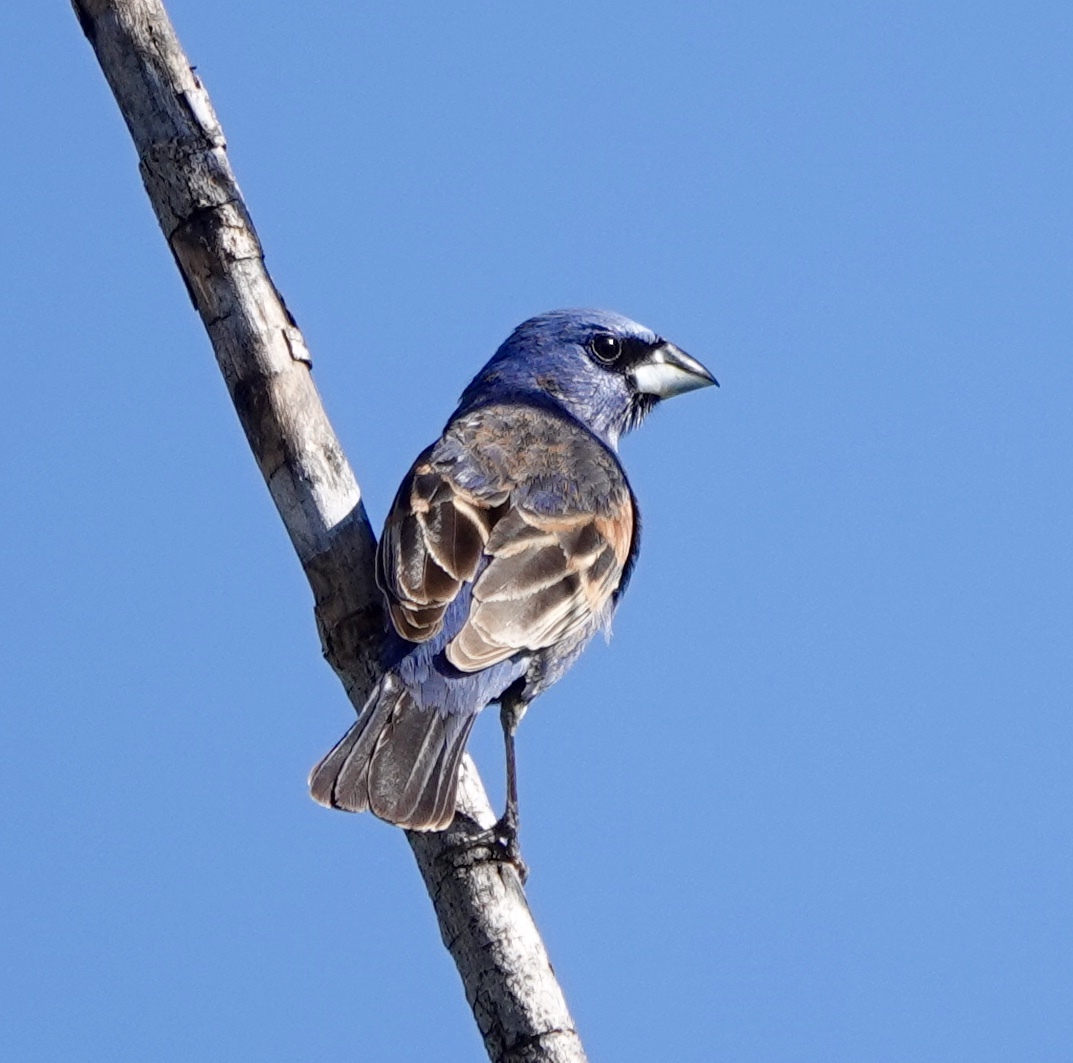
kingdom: Animalia
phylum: Chordata
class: Aves
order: Passeriformes
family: Cardinalidae
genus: Passerina
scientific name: Passerina caerulea
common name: Blue grosbeak
